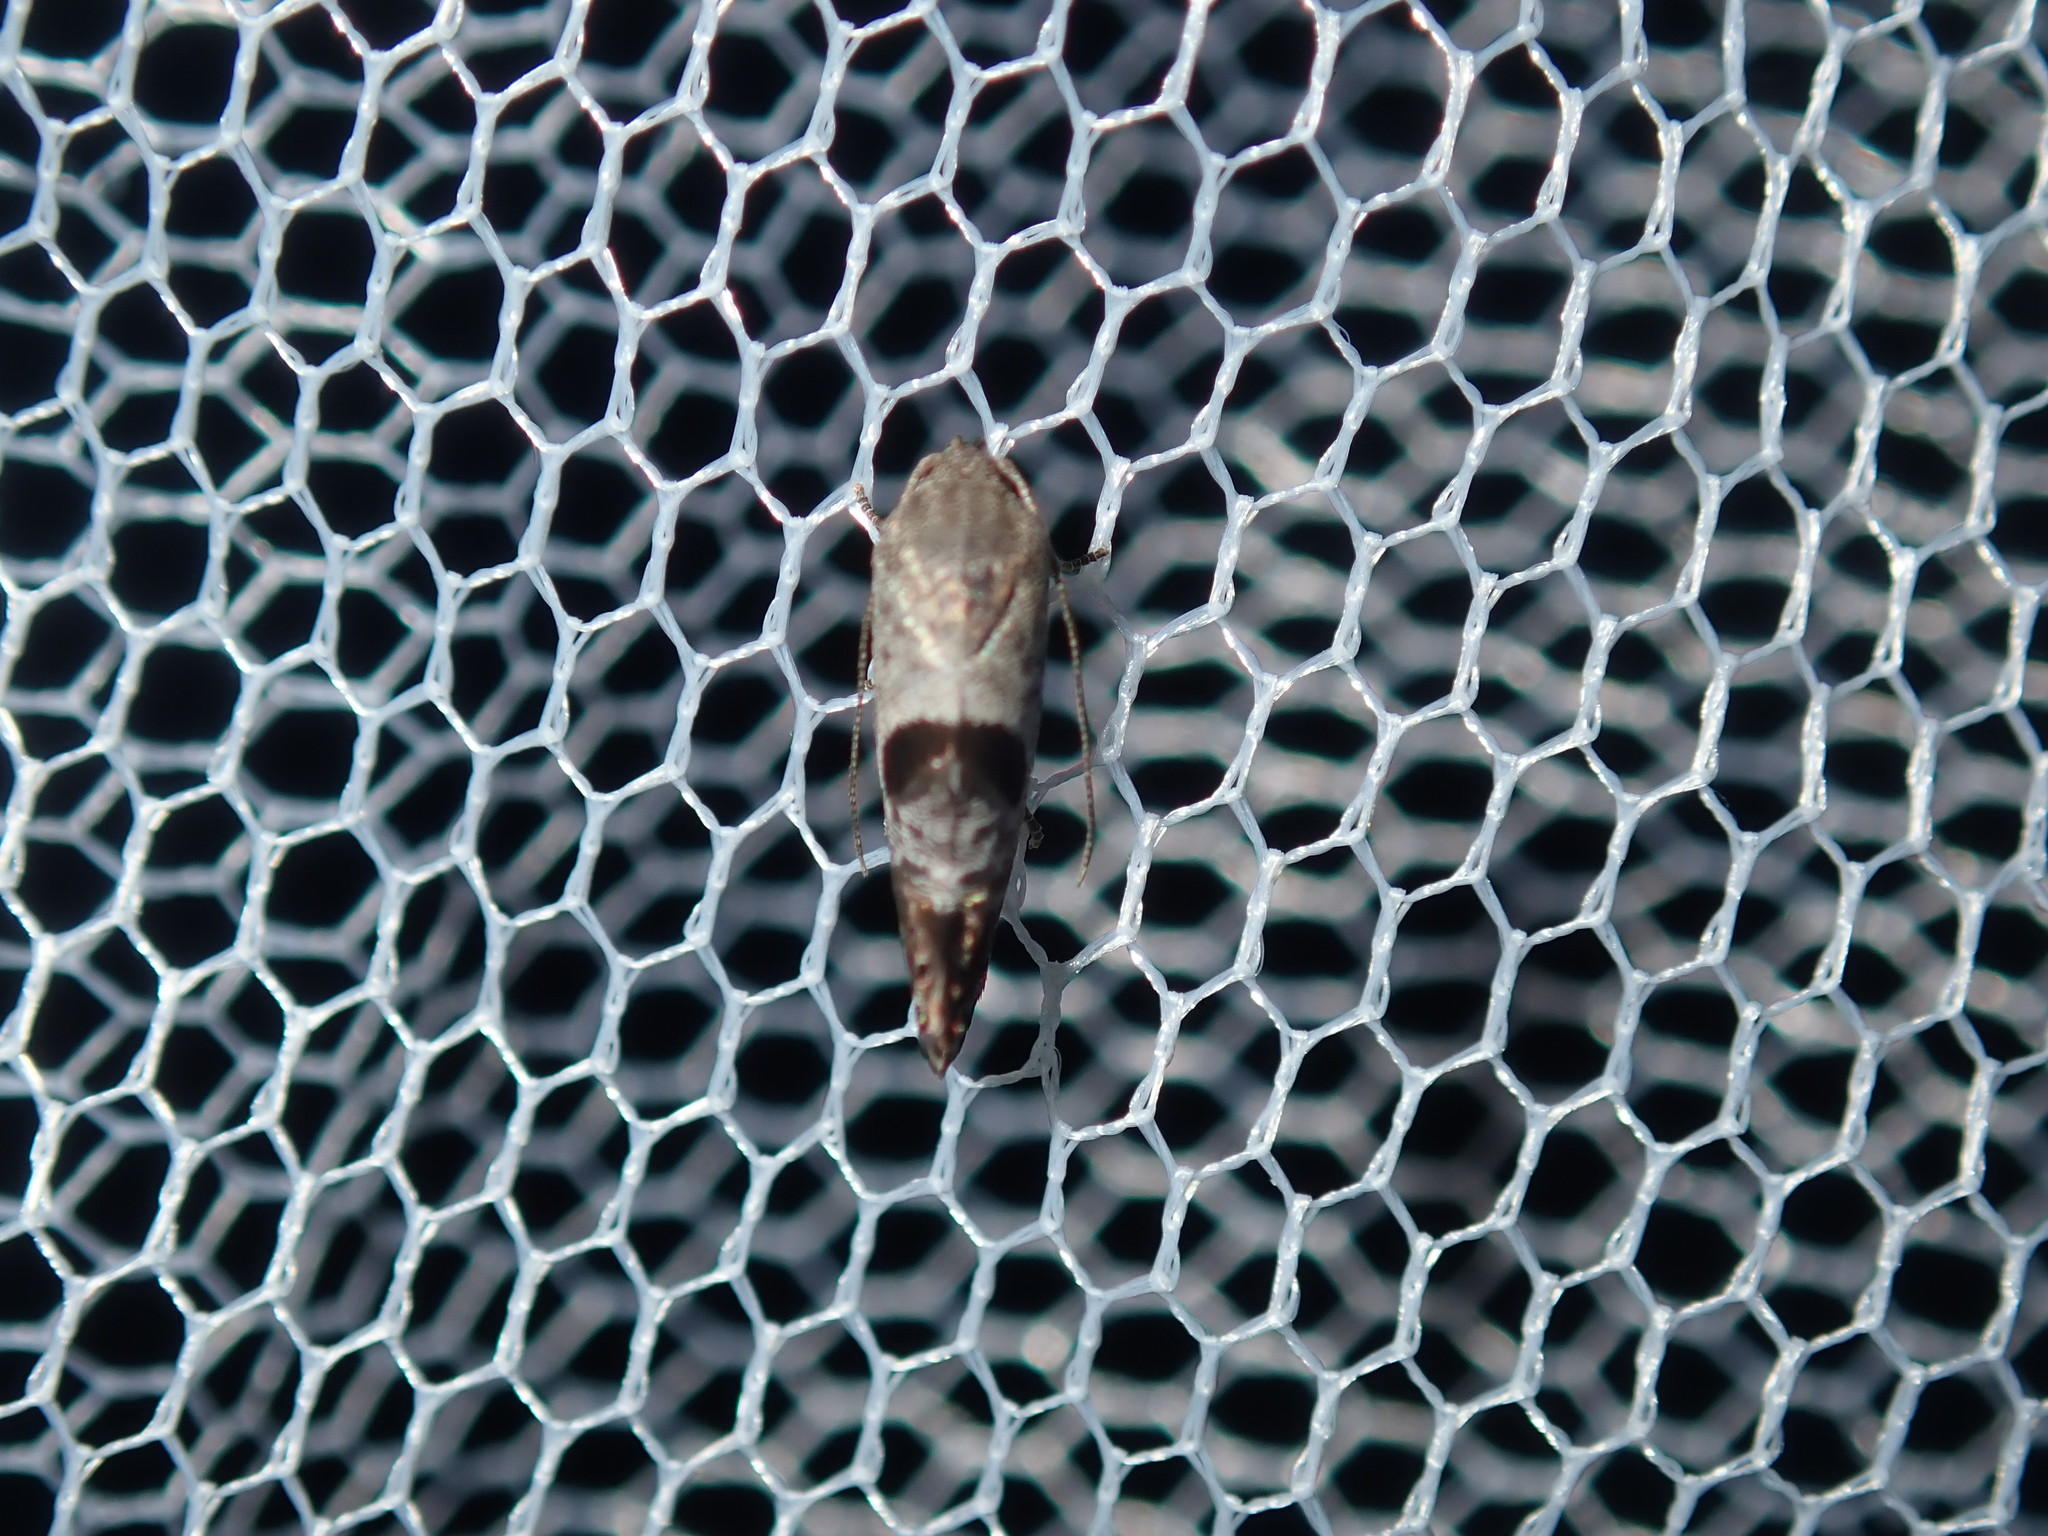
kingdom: Animalia
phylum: Arthropoda
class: Insecta
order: Lepidoptera
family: Depressariidae
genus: Eupselia
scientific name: Eupselia beatella
